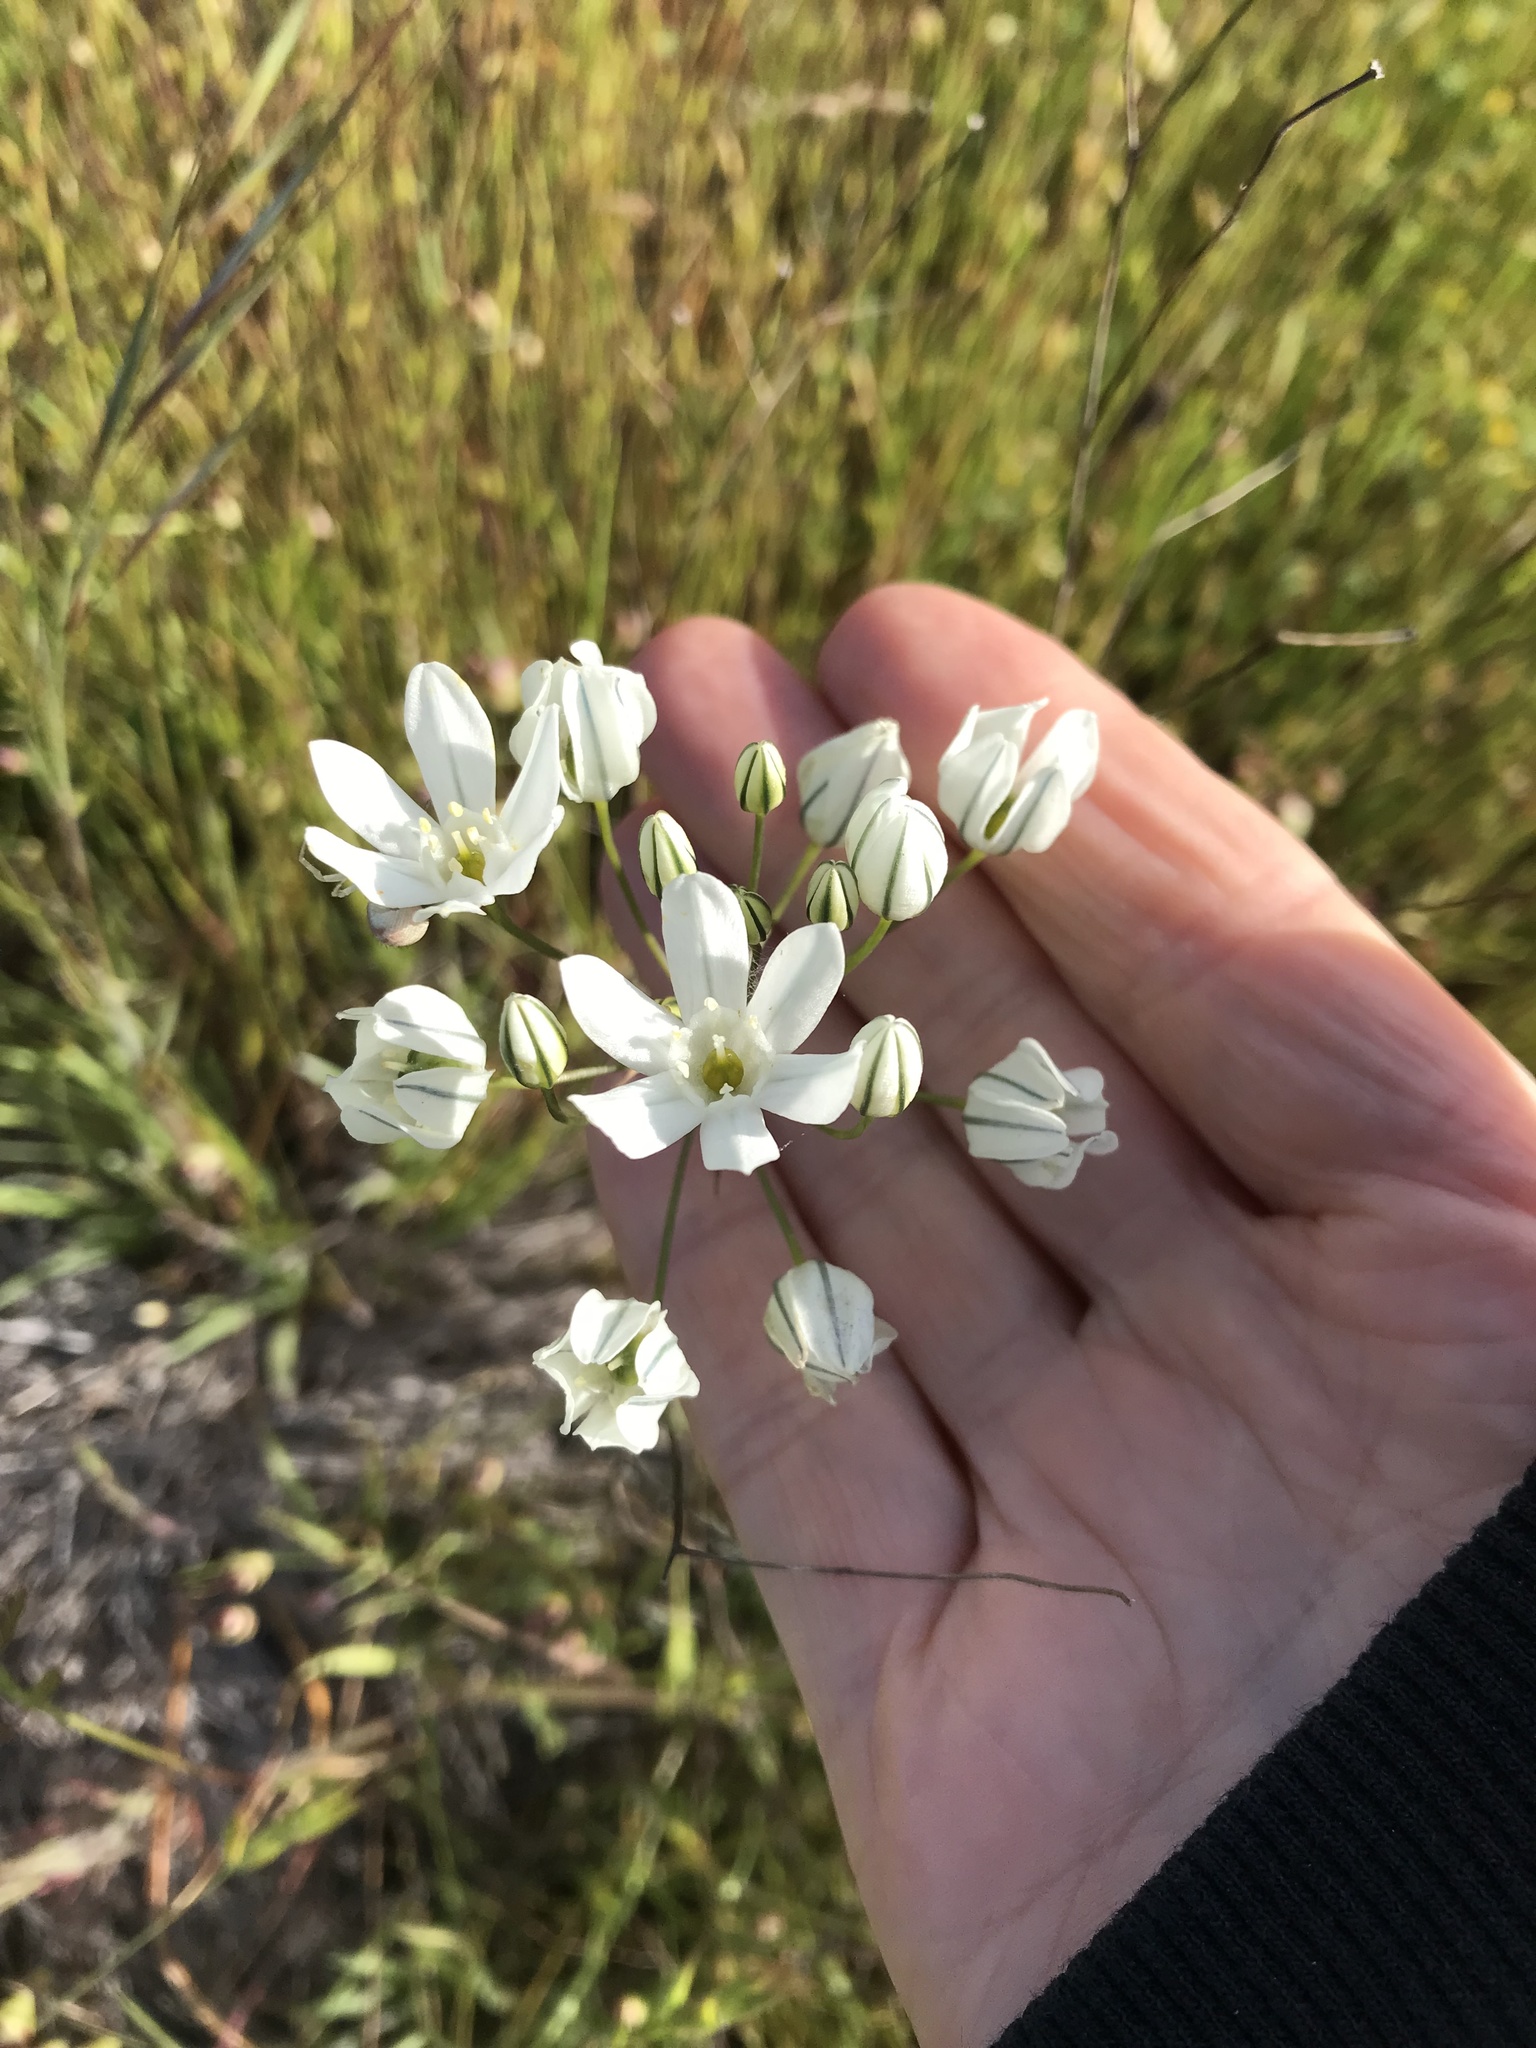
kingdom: Plantae
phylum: Tracheophyta
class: Liliopsida
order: Asparagales
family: Asparagaceae
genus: Triteleia
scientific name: Triteleia hyacinthina
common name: White brodiaea
